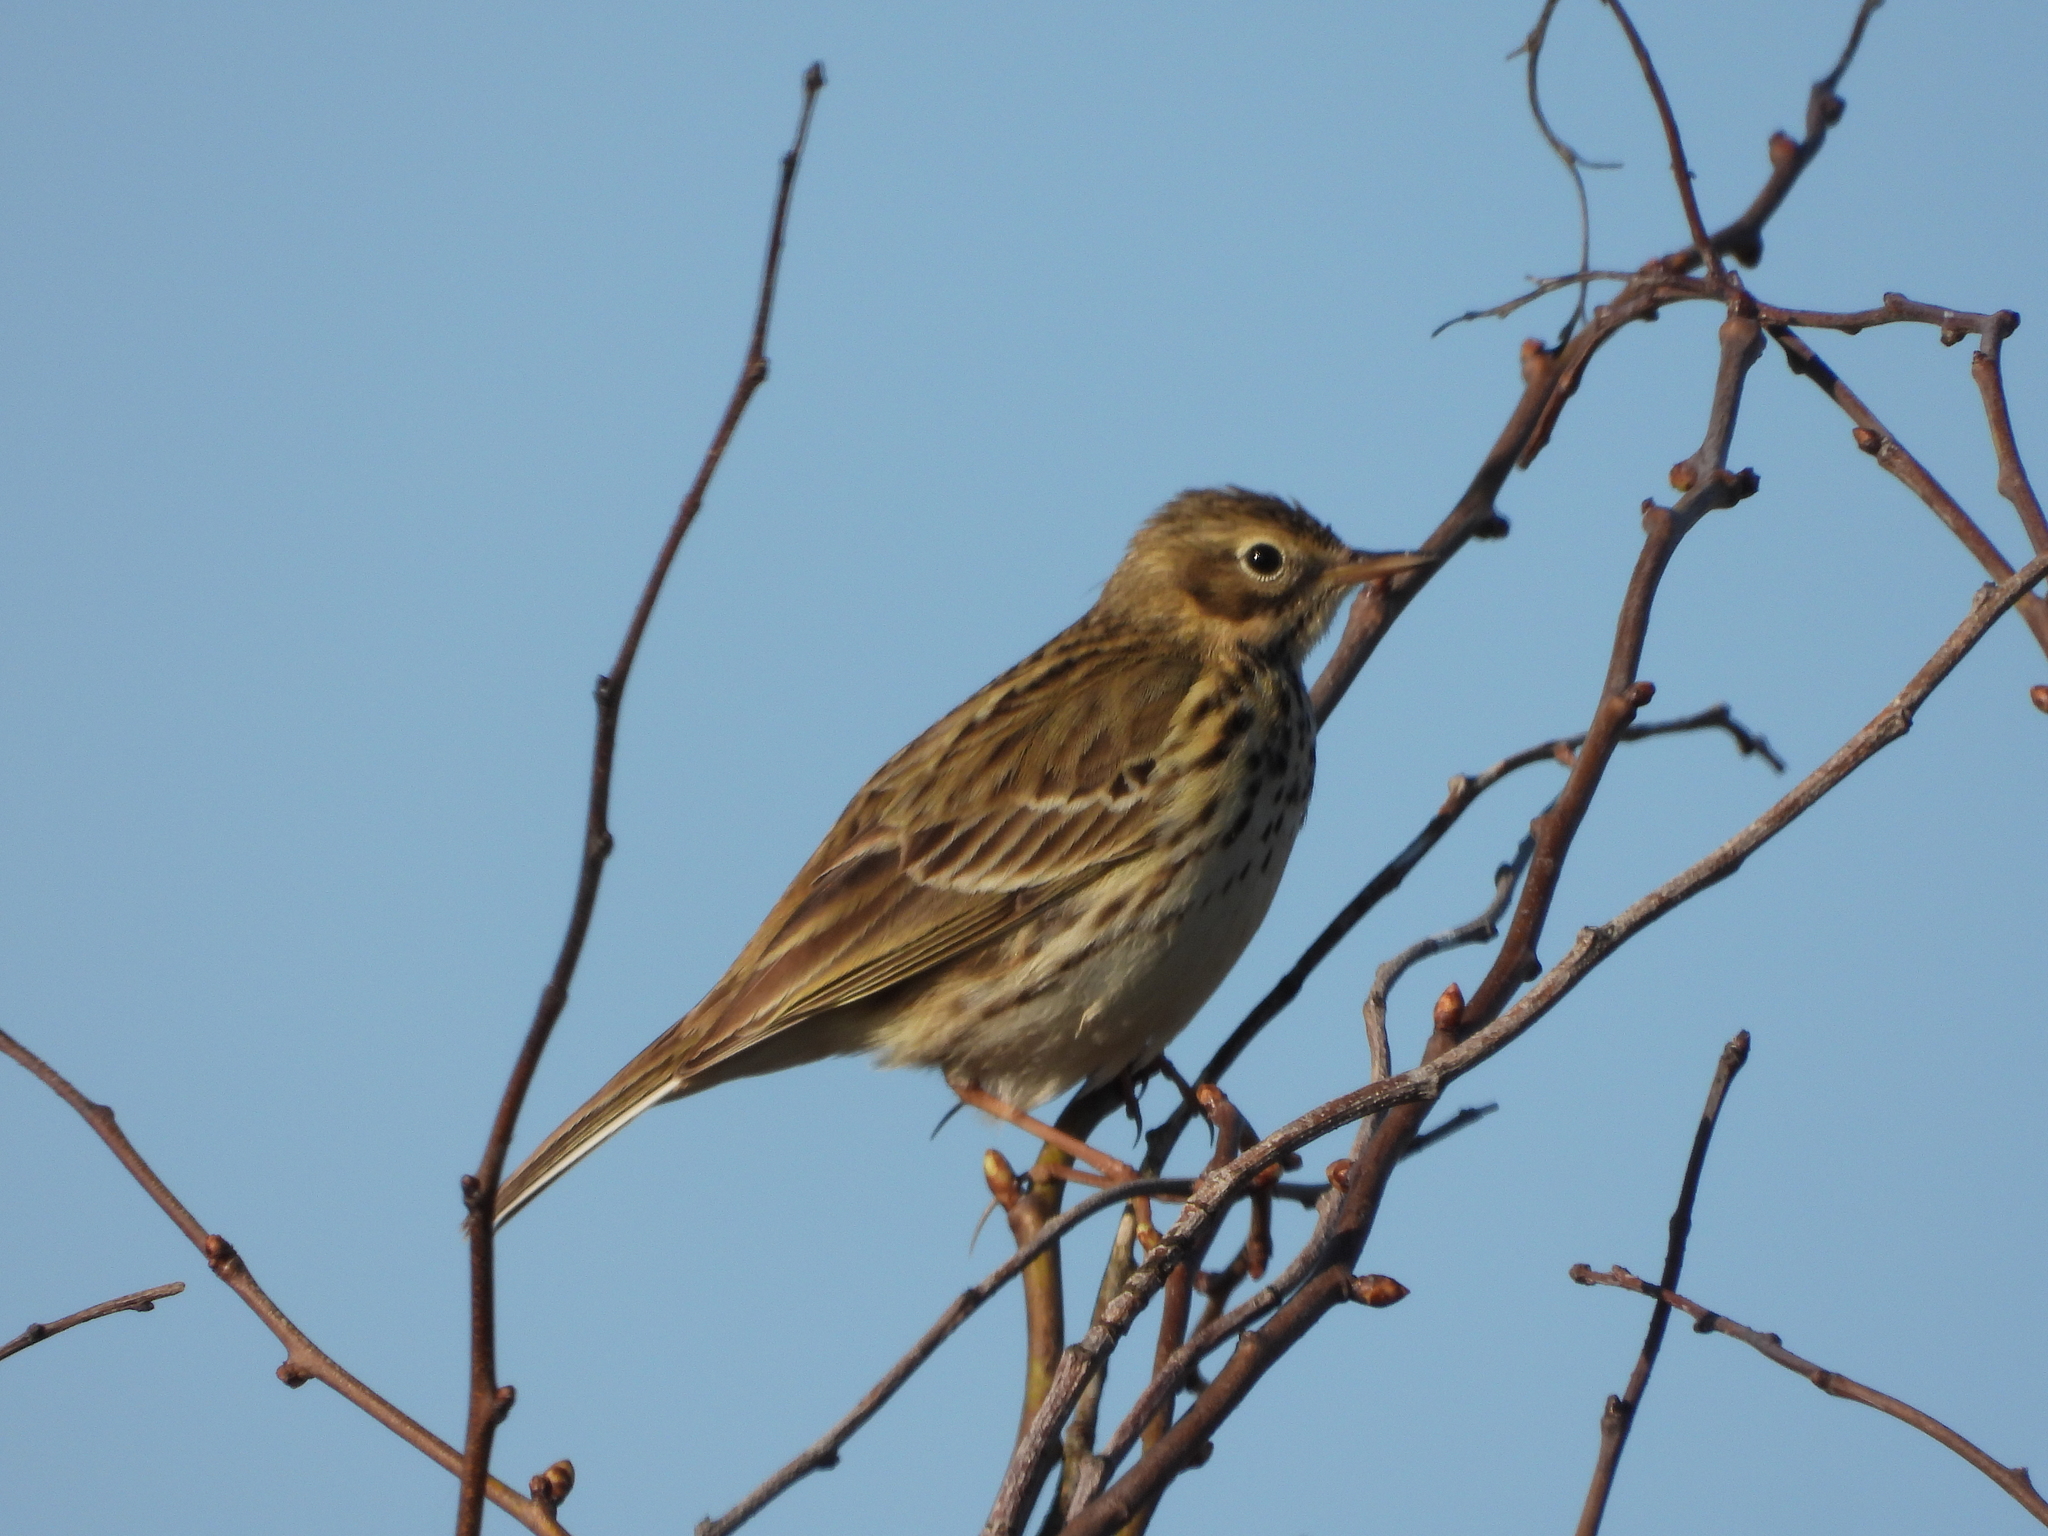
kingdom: Animalia
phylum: Chordata
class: Aves
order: Passeriformes
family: Motacillidae
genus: Anthus
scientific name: Anthus pratensis
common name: Meadow pipit
